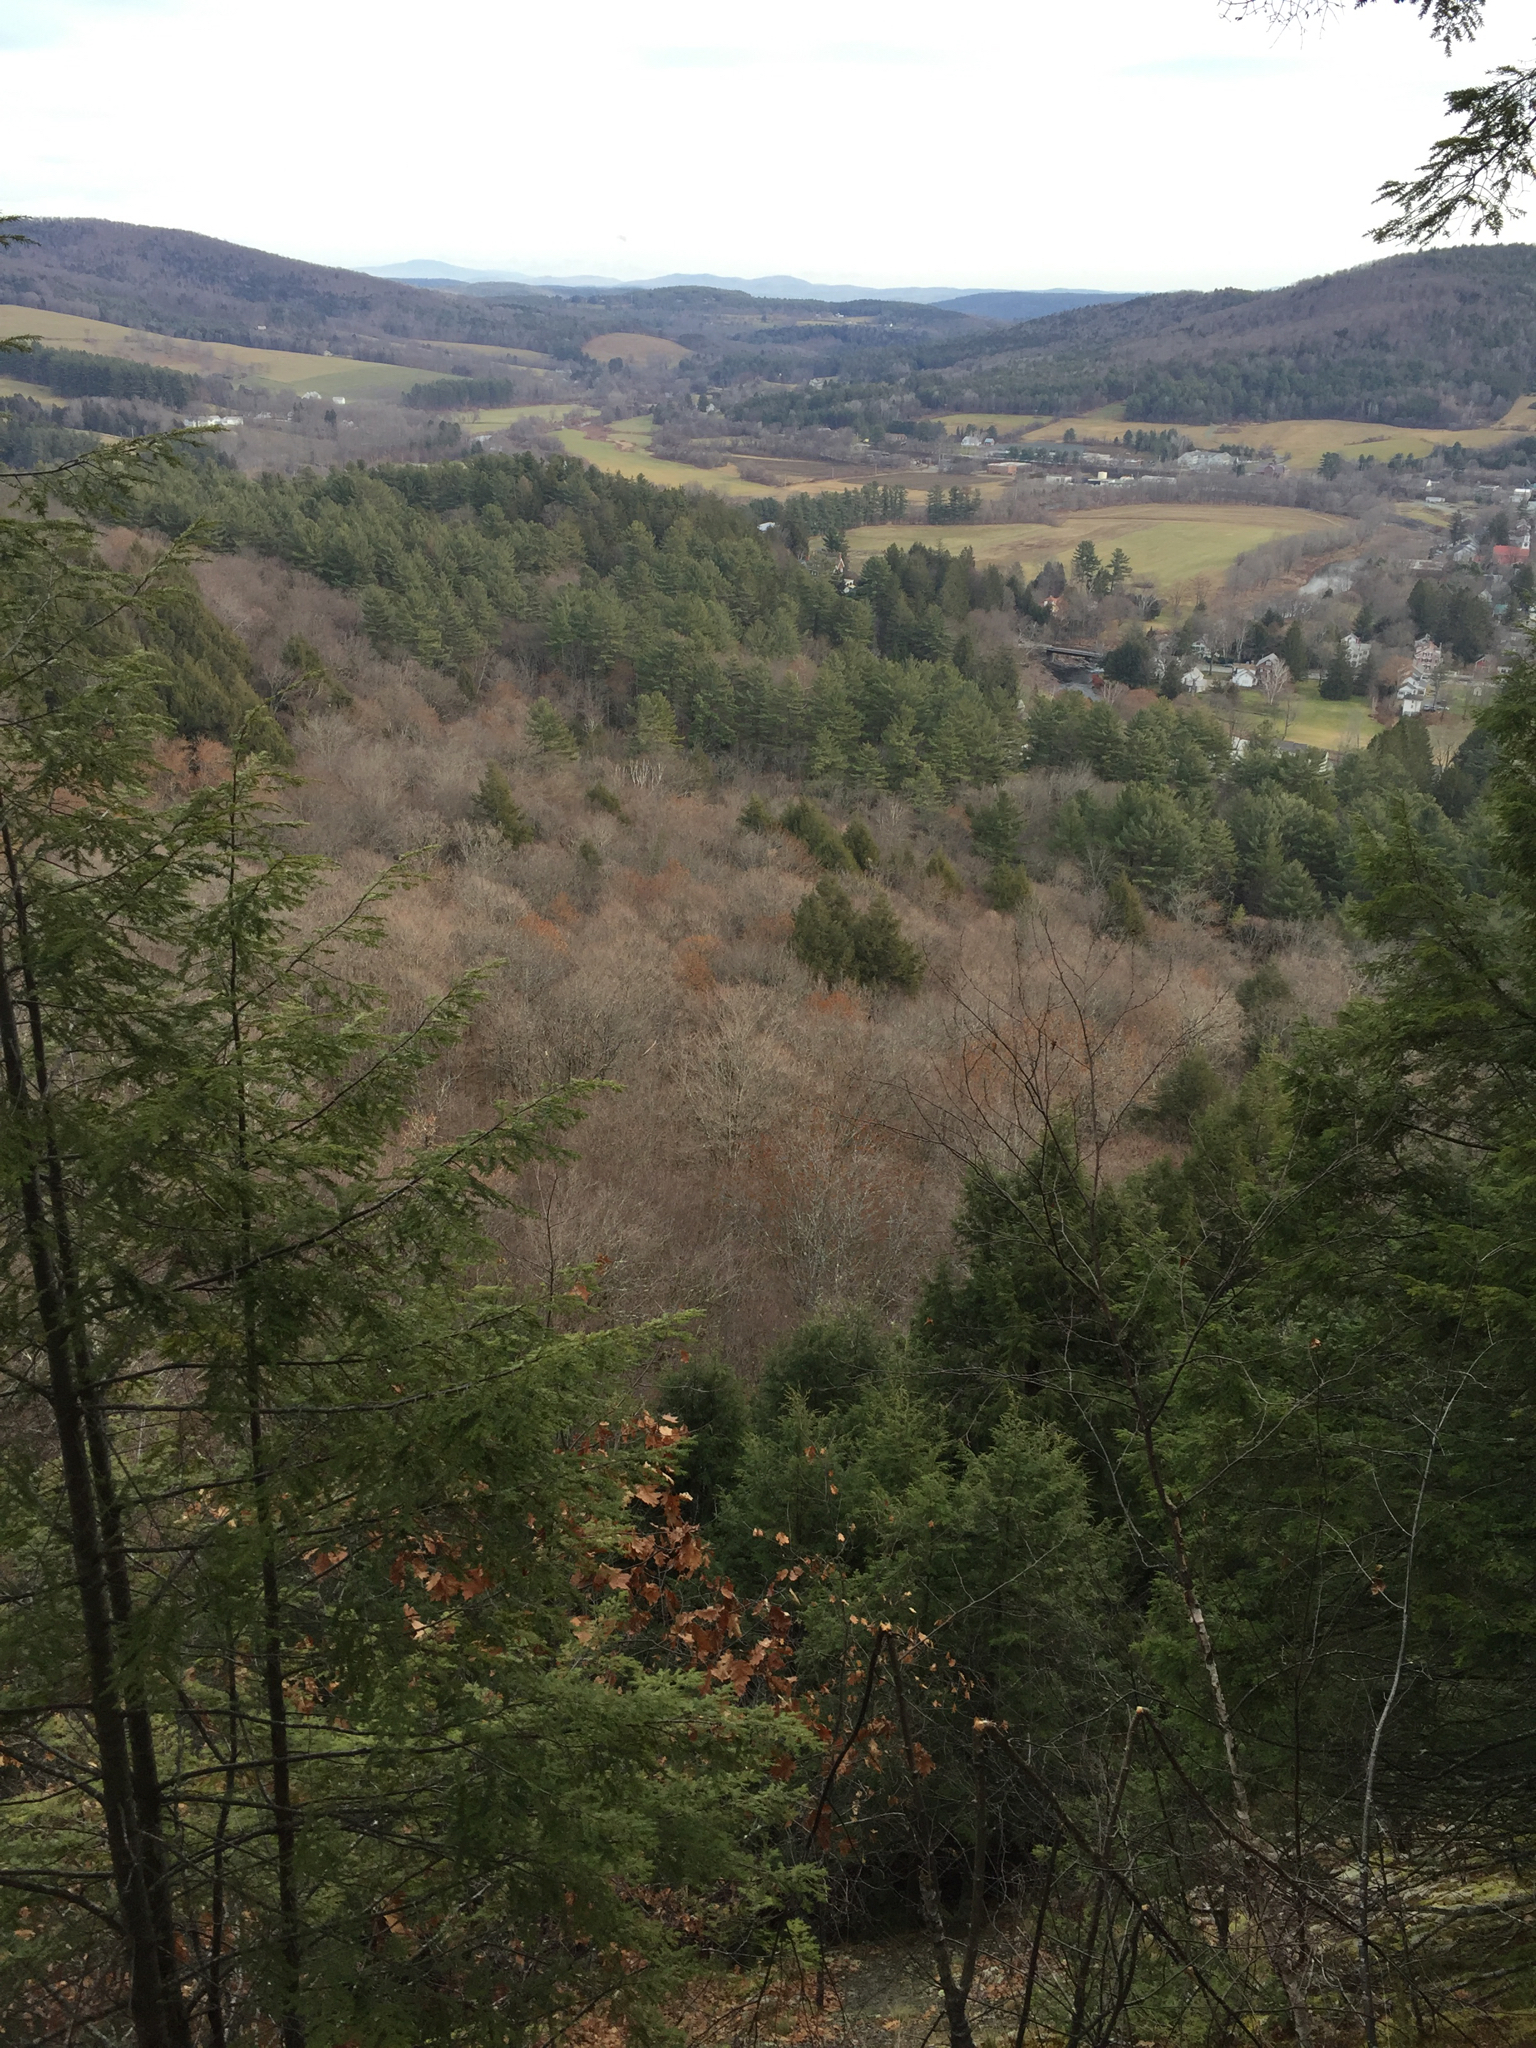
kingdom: Plantae
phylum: Tracheophyta
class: Pinopsida
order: Pinales
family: Pinaceae
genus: Tsuga
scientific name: Tsuga canadensis
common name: Eastern hemlock
